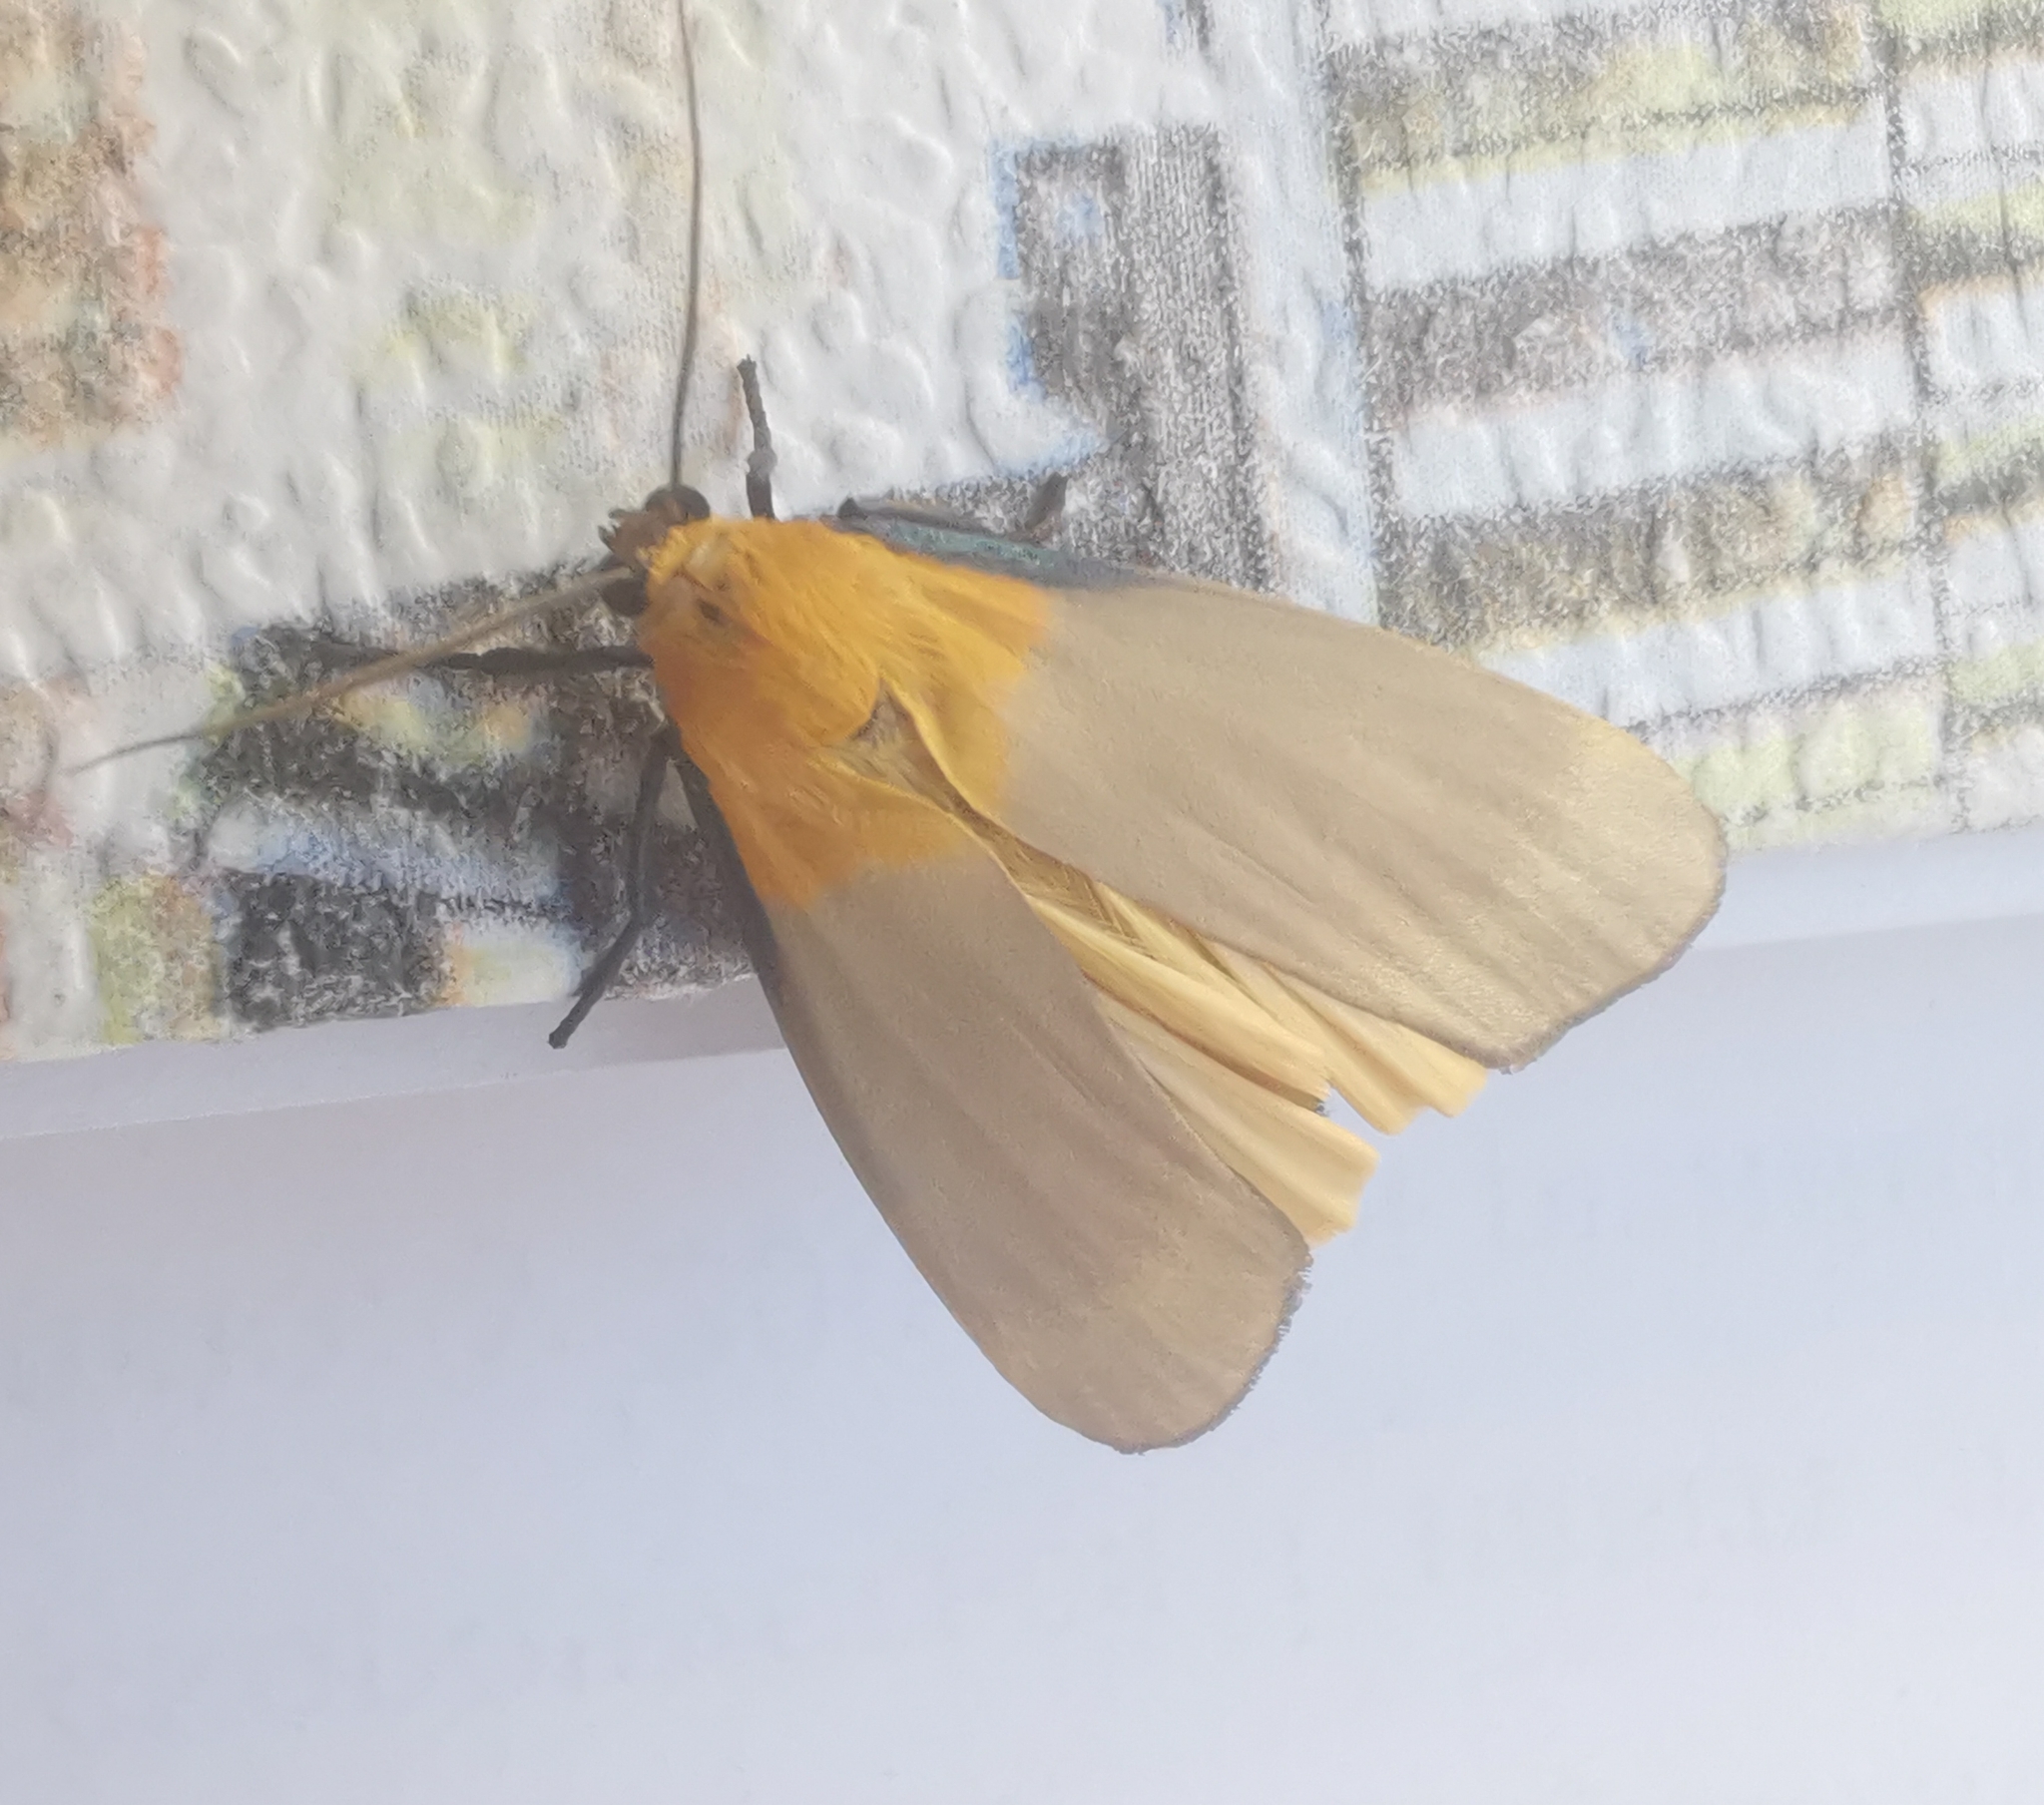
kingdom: Animalia
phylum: Arthropoda
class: Insecta
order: Lepidoptera
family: Erebidae
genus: Lithosia
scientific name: Lithosia quadra
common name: Four-spotted footman
